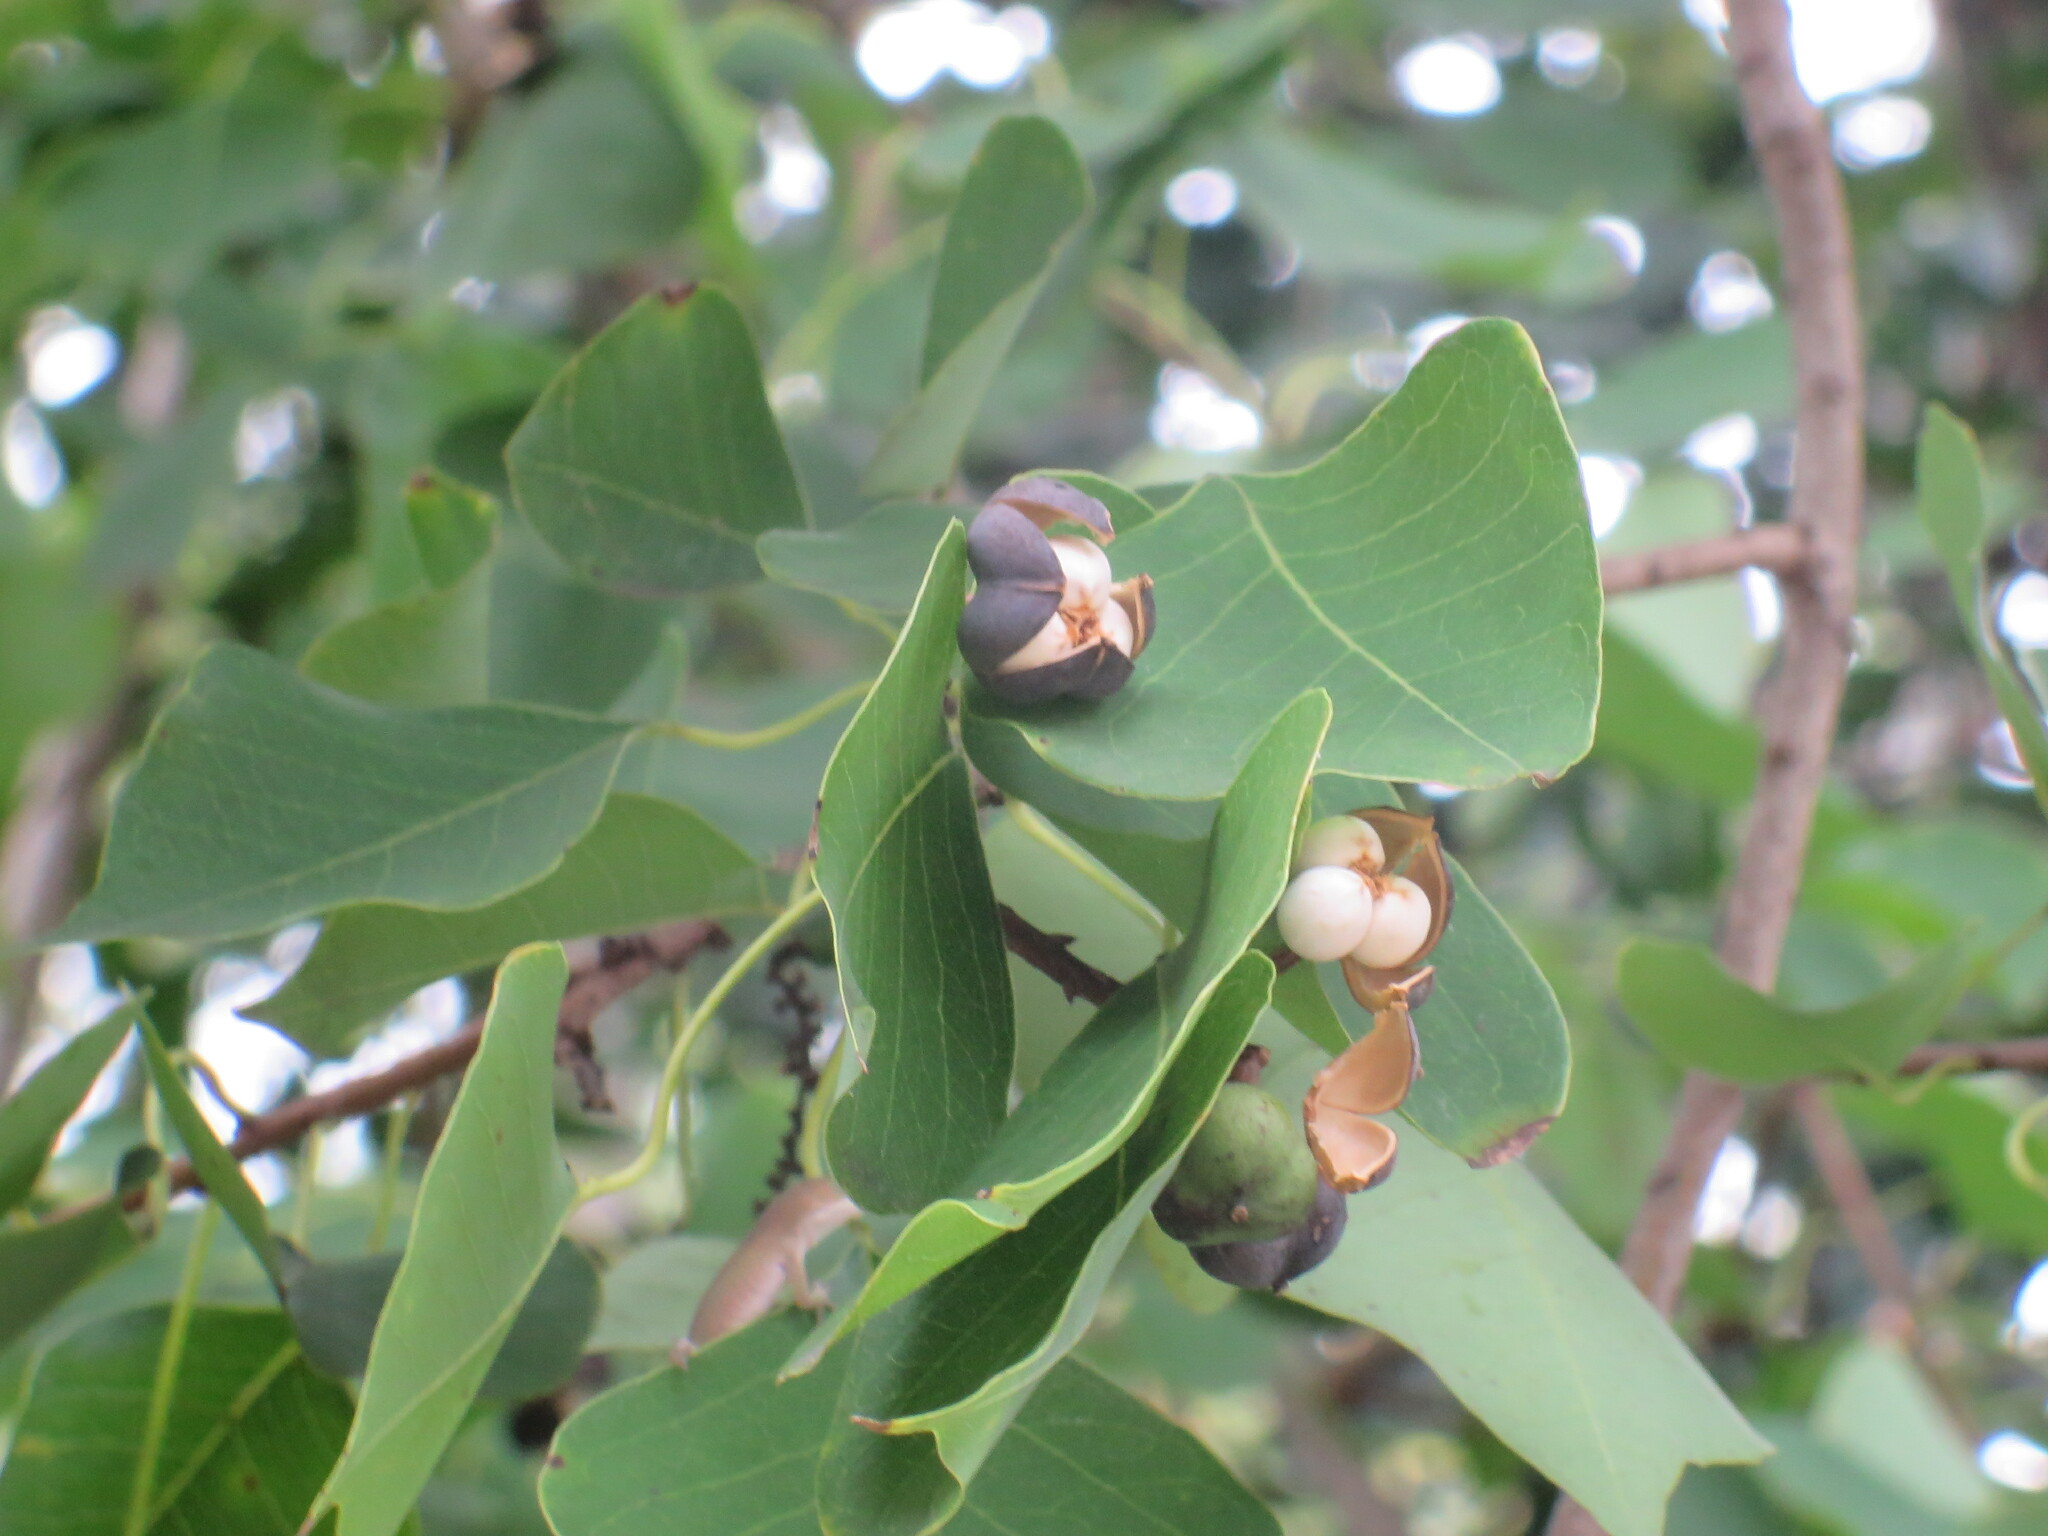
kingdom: Plantae
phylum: Tracheophyta
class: Magnoliopsida
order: Malpighiales
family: Euphorbiaceae
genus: Triadica
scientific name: Triadica sebifera
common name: Chinese tallow
